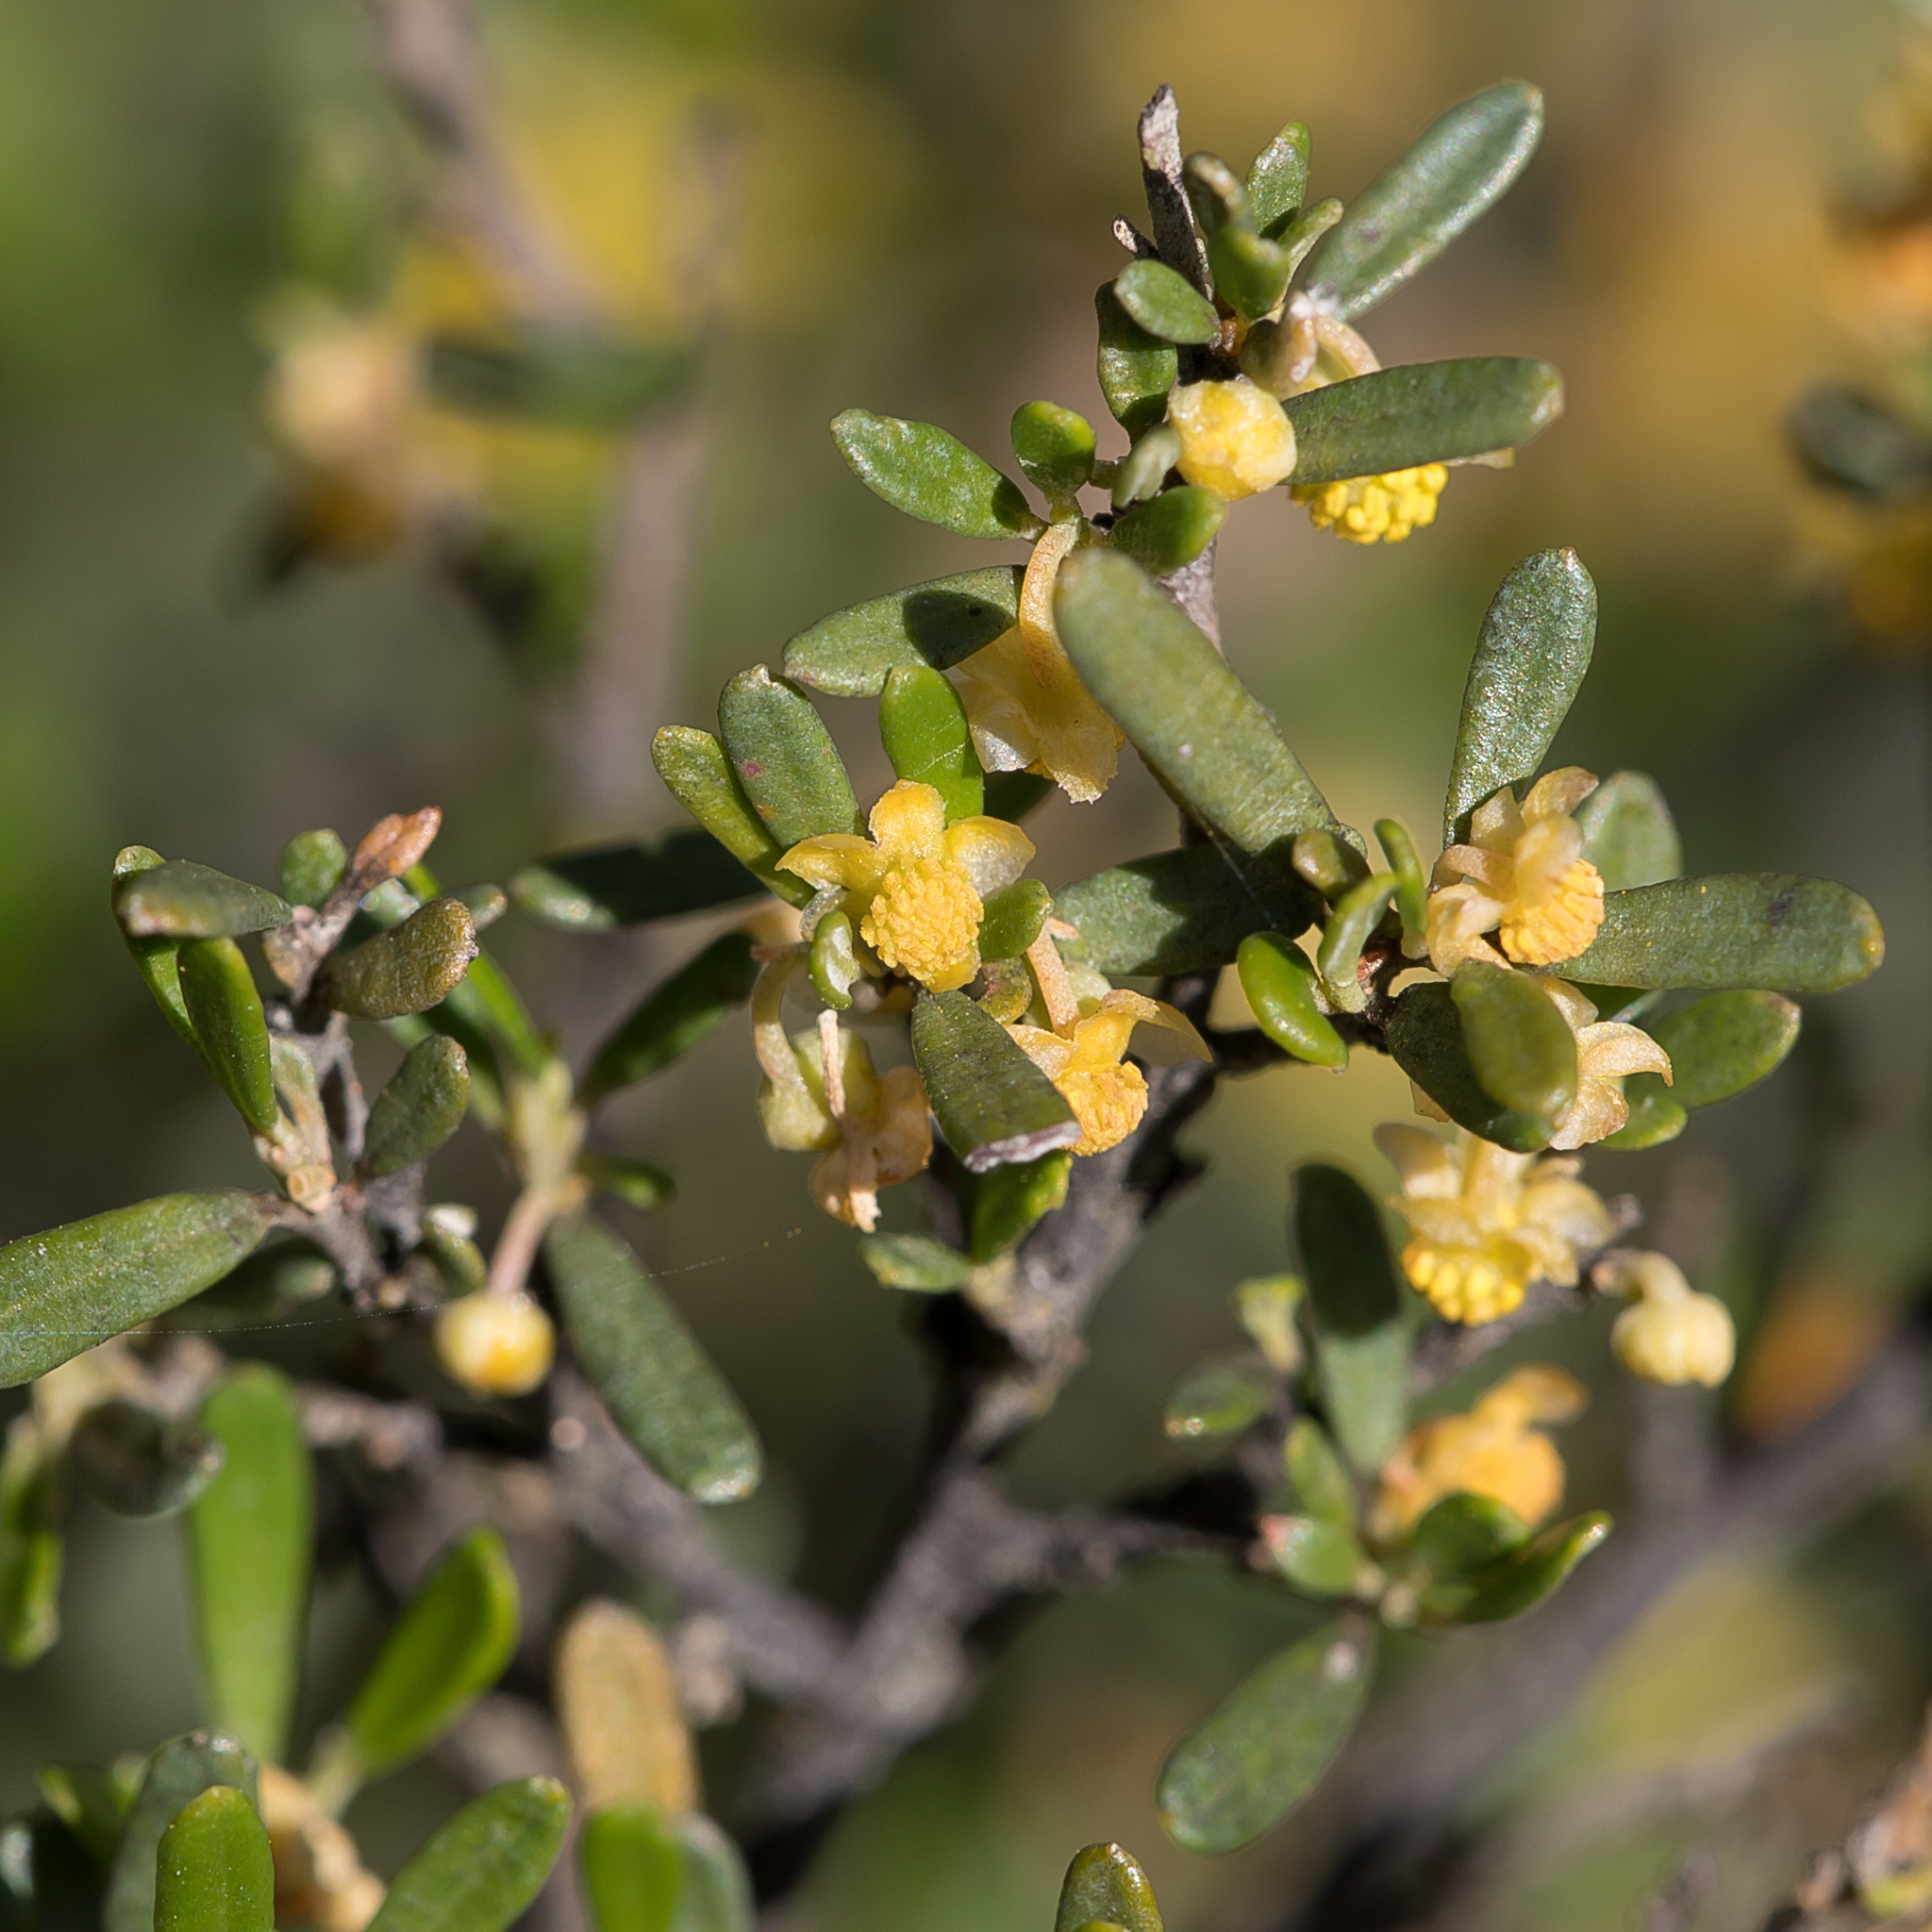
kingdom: Plantae
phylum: Tracheophyta
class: Magnoliopsida
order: Malpighiales
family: Euphorbiaceae
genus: Beyeria
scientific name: Beyeria lechenaultii
